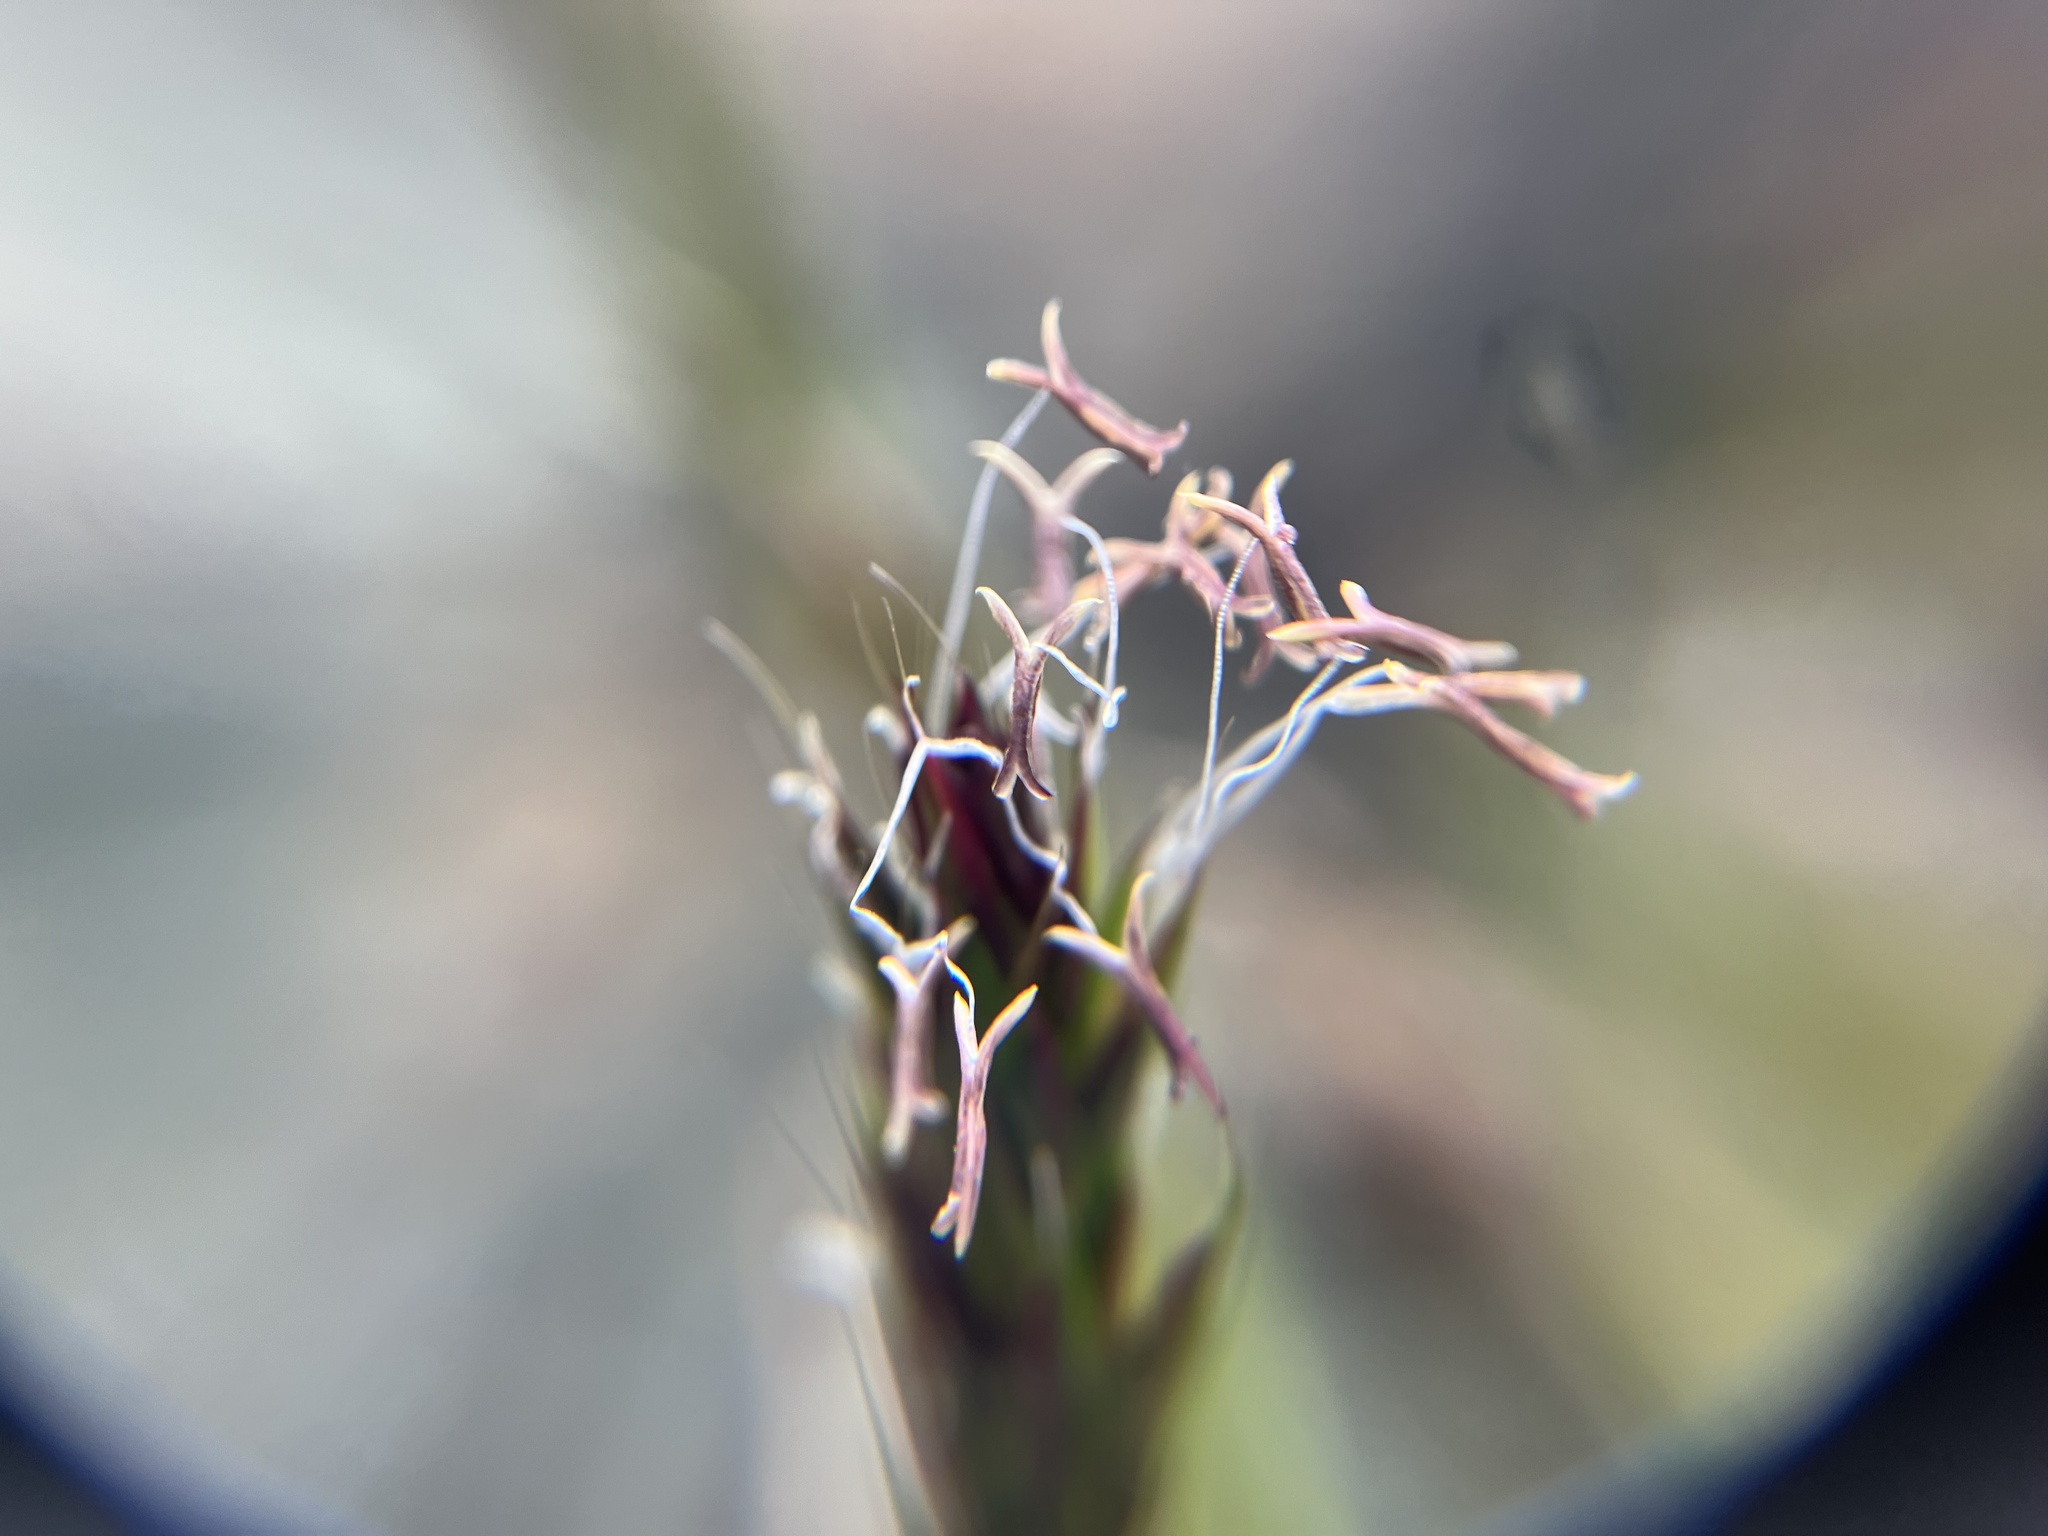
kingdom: Plantae
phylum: Tracheophyta
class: Liliopsida
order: Poales
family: Poaceae
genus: Anthoxanthum
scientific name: Anthoxanthum odoratum
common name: Sweet vernalgrass
